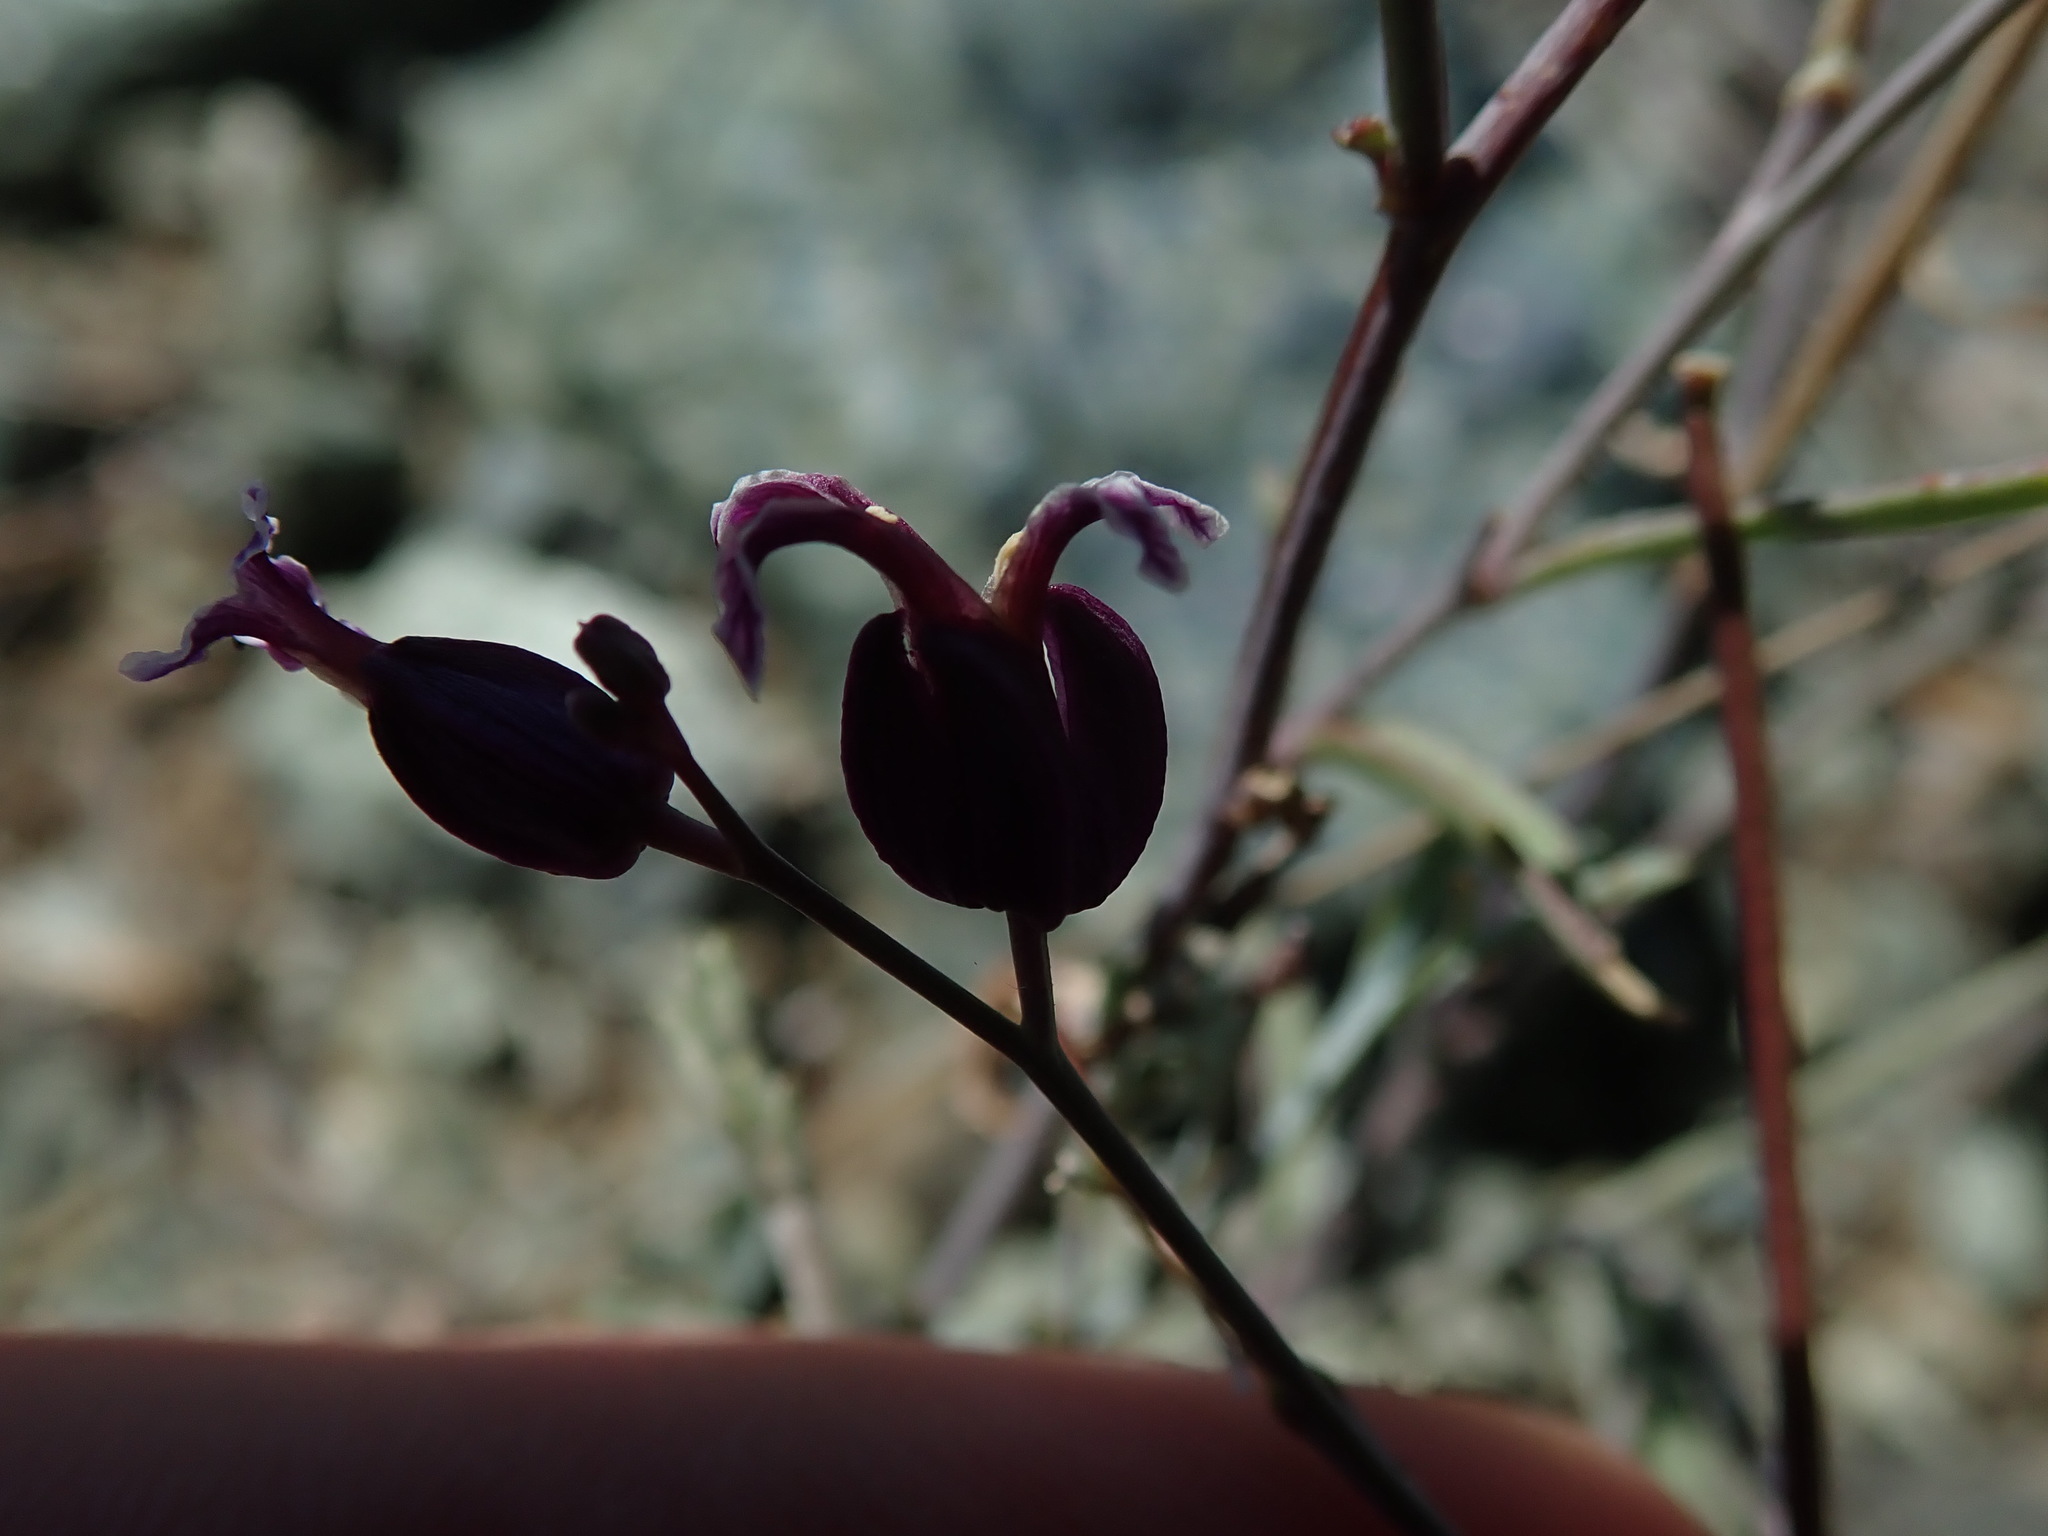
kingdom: Plantae
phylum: Tracheophyta
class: Magnoliopsida
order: Brassicales
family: Brassicaceae
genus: Streptanthus
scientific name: Streptanthus glandulosus
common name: Jewel-flower
